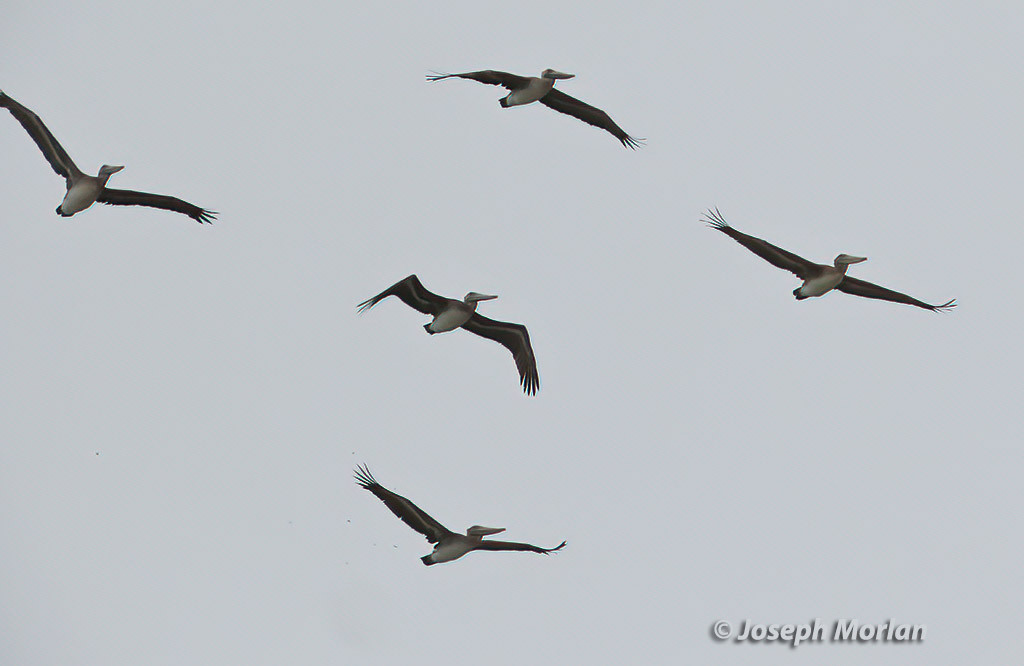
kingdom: Animalia
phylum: Chordata
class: Aves
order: Pelecaniformes
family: Pelecanidae
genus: Pelecanus
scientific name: Pelecanus occidentalis
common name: Brown pelican
